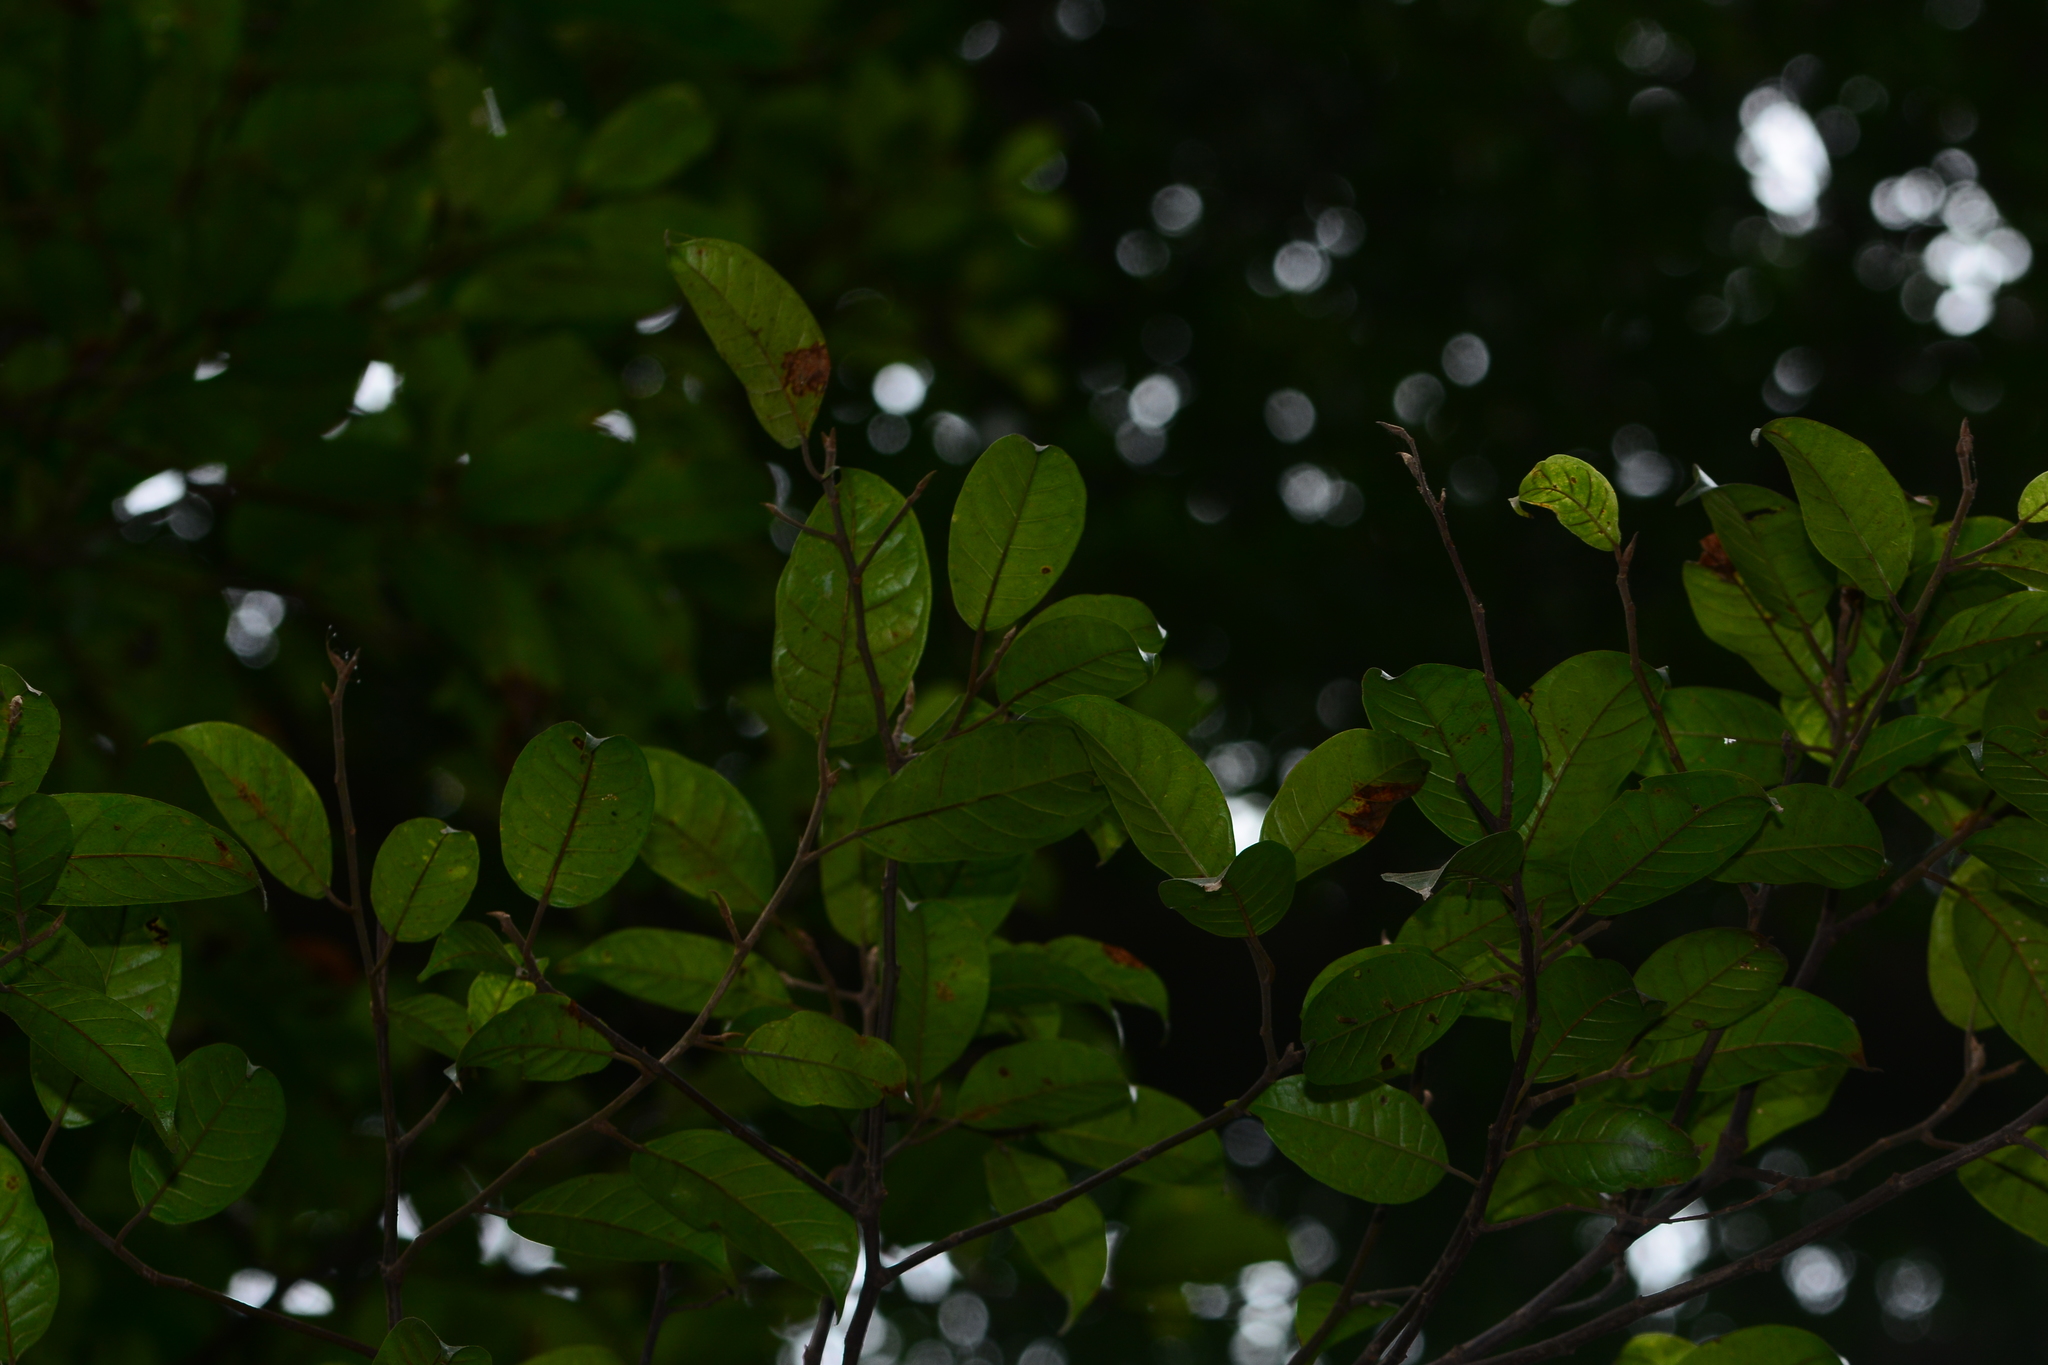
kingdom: Plantae
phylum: Tracheophyta
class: Magnoliopsida
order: Rosales
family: Moraceae
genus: Ficus
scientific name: Ficus nervosa
